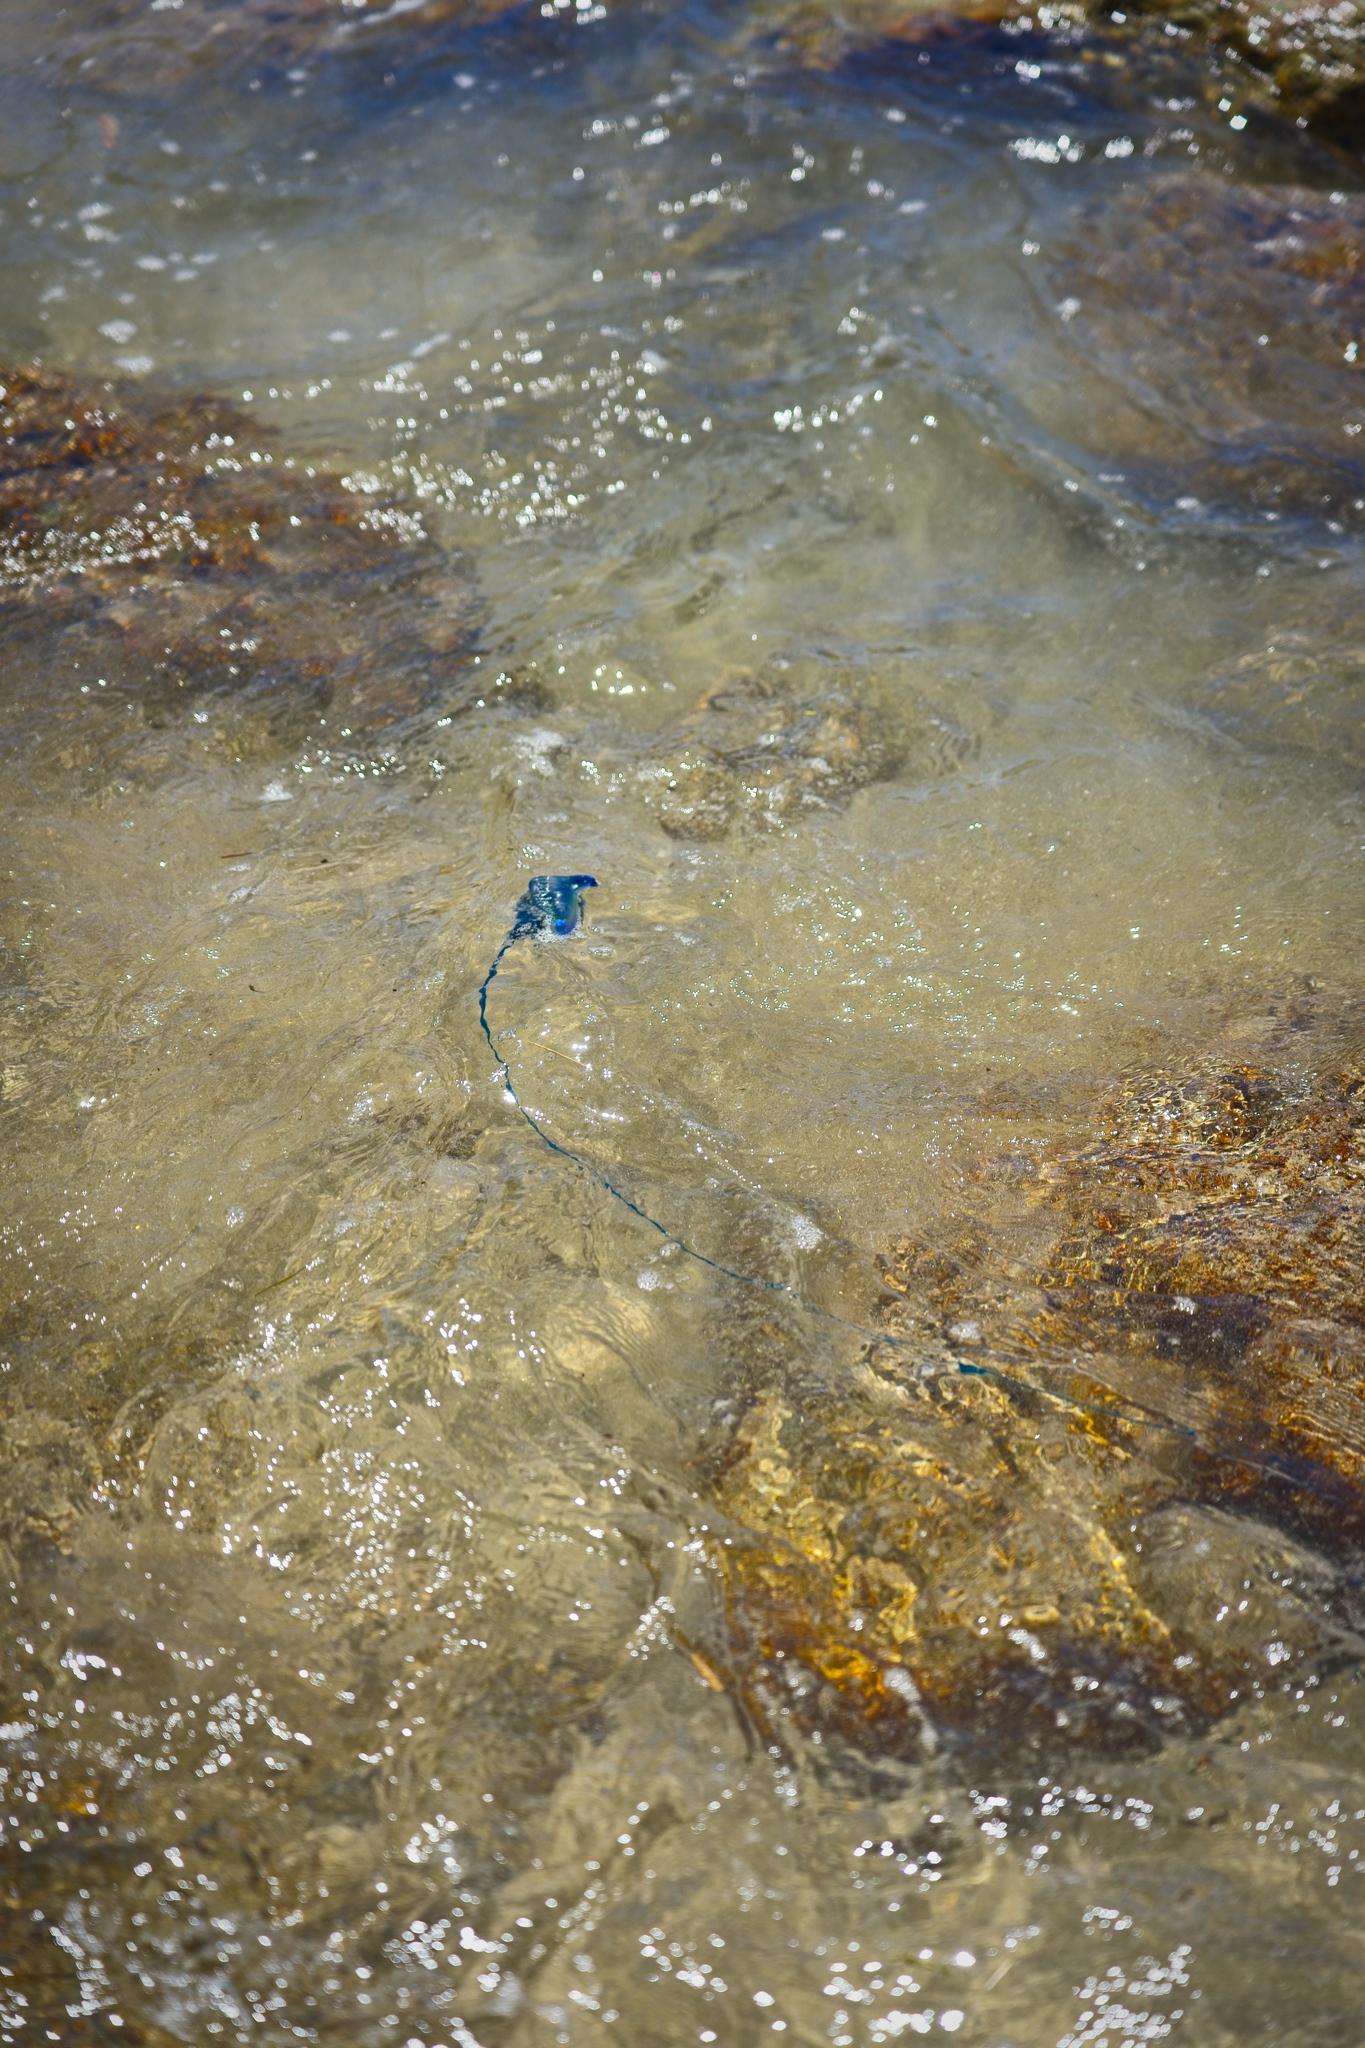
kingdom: Animalia
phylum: Cnidaria
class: Hydrozoa
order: Siphonophorae
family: Physaliidae
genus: Physalia
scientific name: Physalia physalis
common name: Portuguese man-of-war
